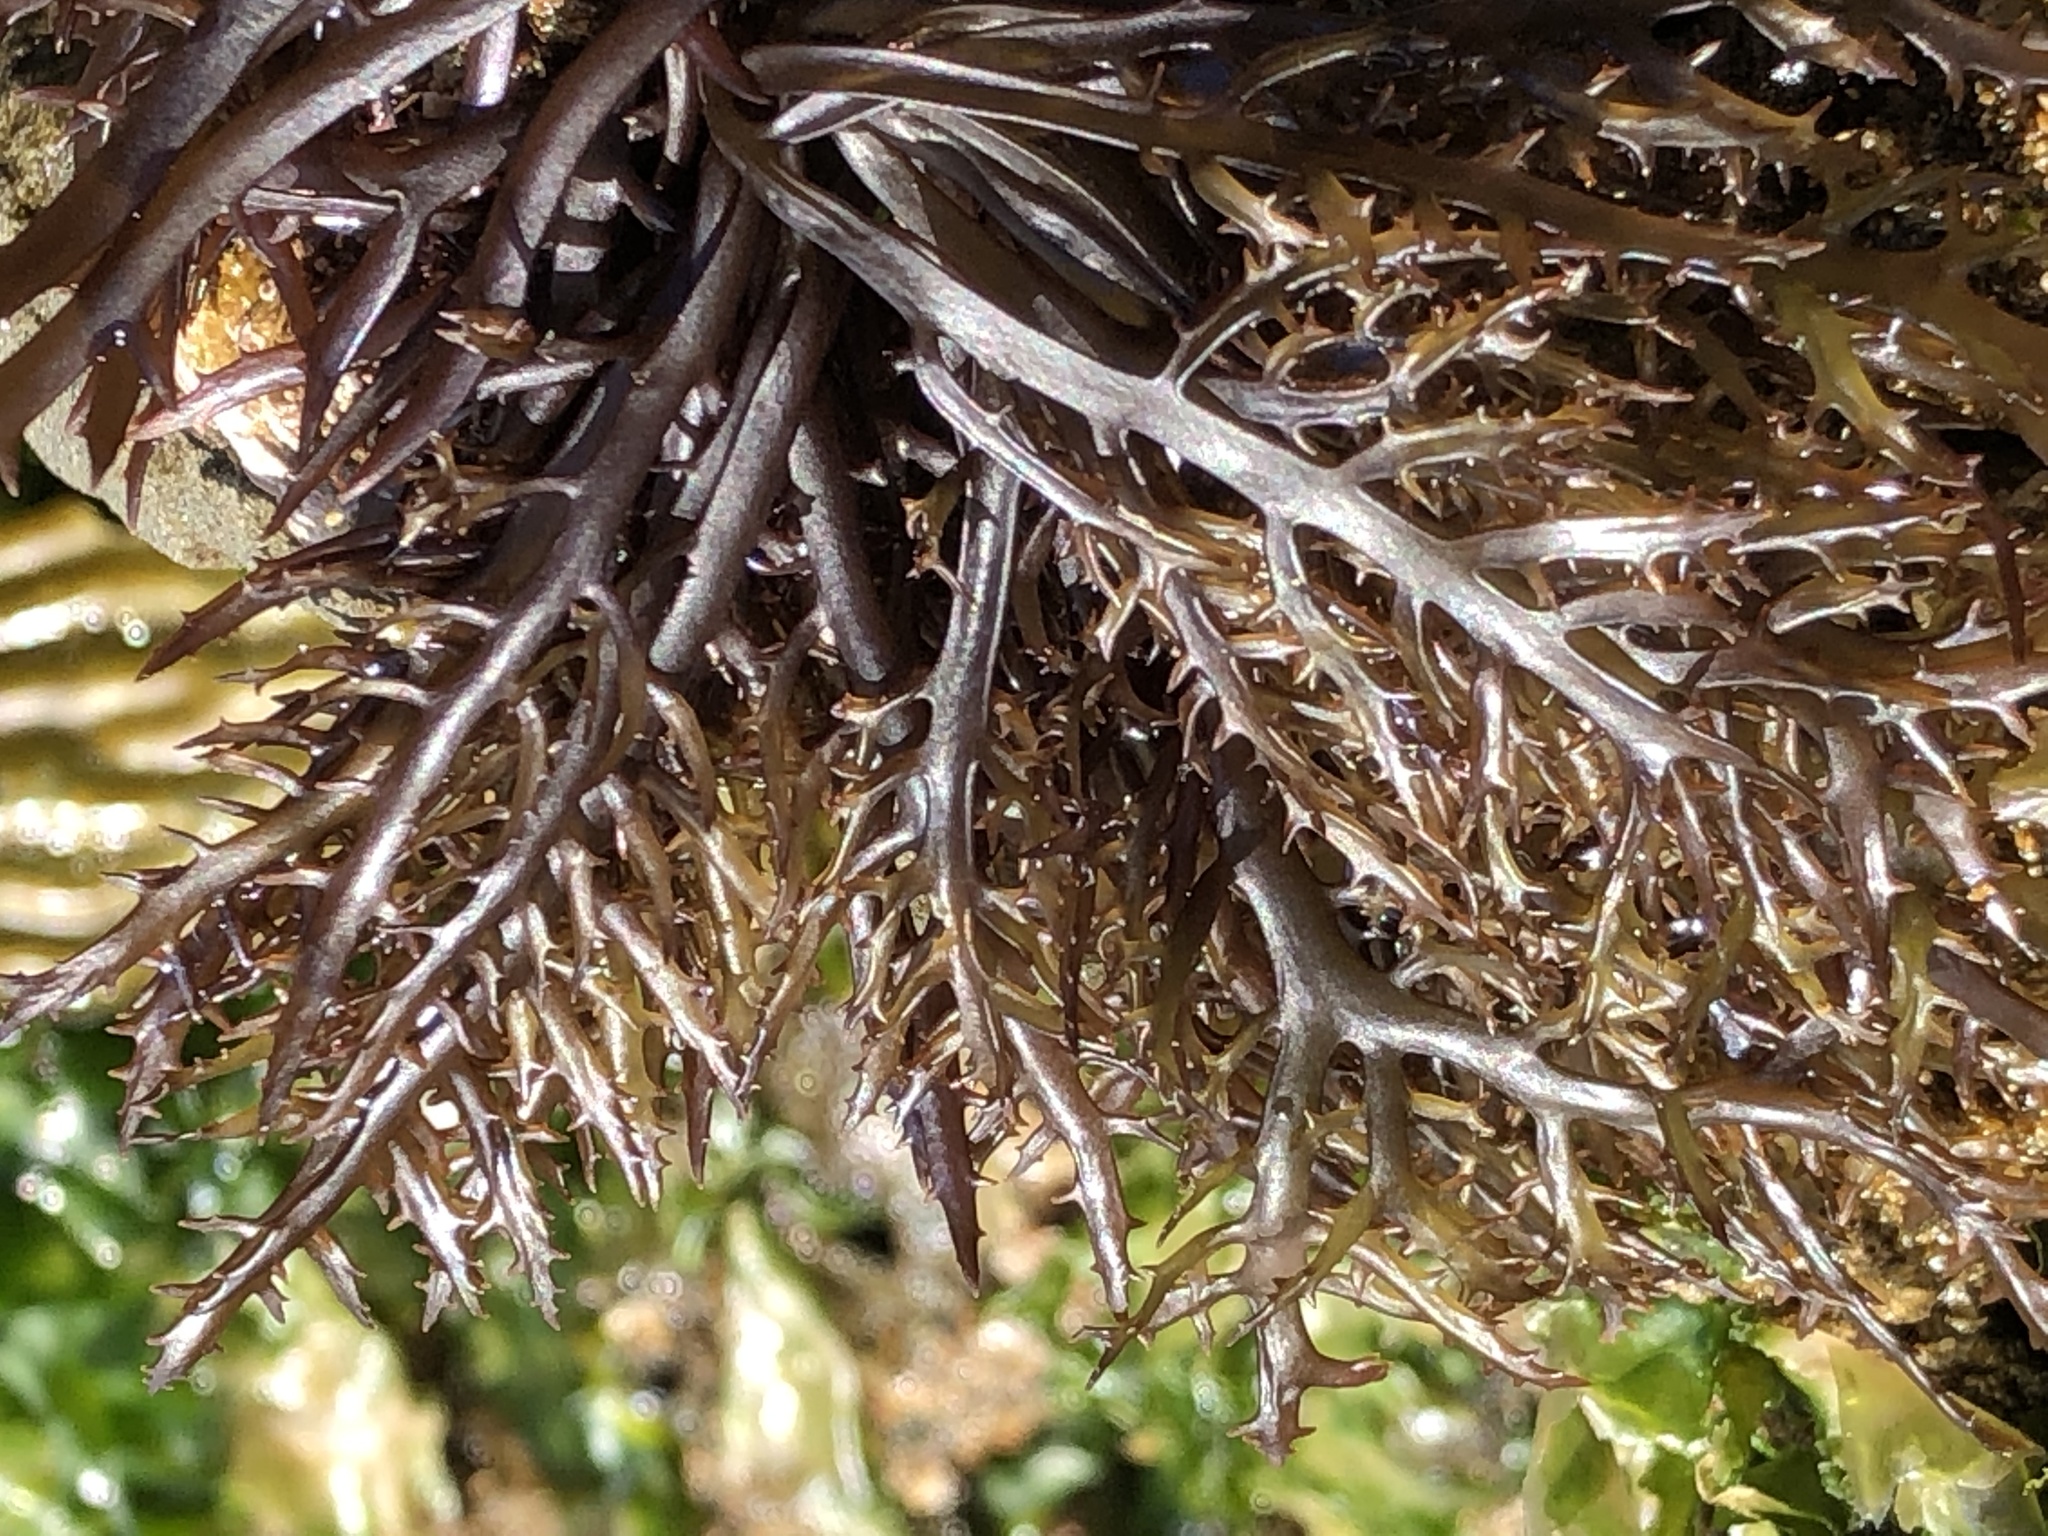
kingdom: Plantae
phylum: Rhodophyta
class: Florideophyceae
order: Gigartinales
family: Gigartinaceae
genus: Chondracanthus
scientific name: Chondracanthus canaliculatus
